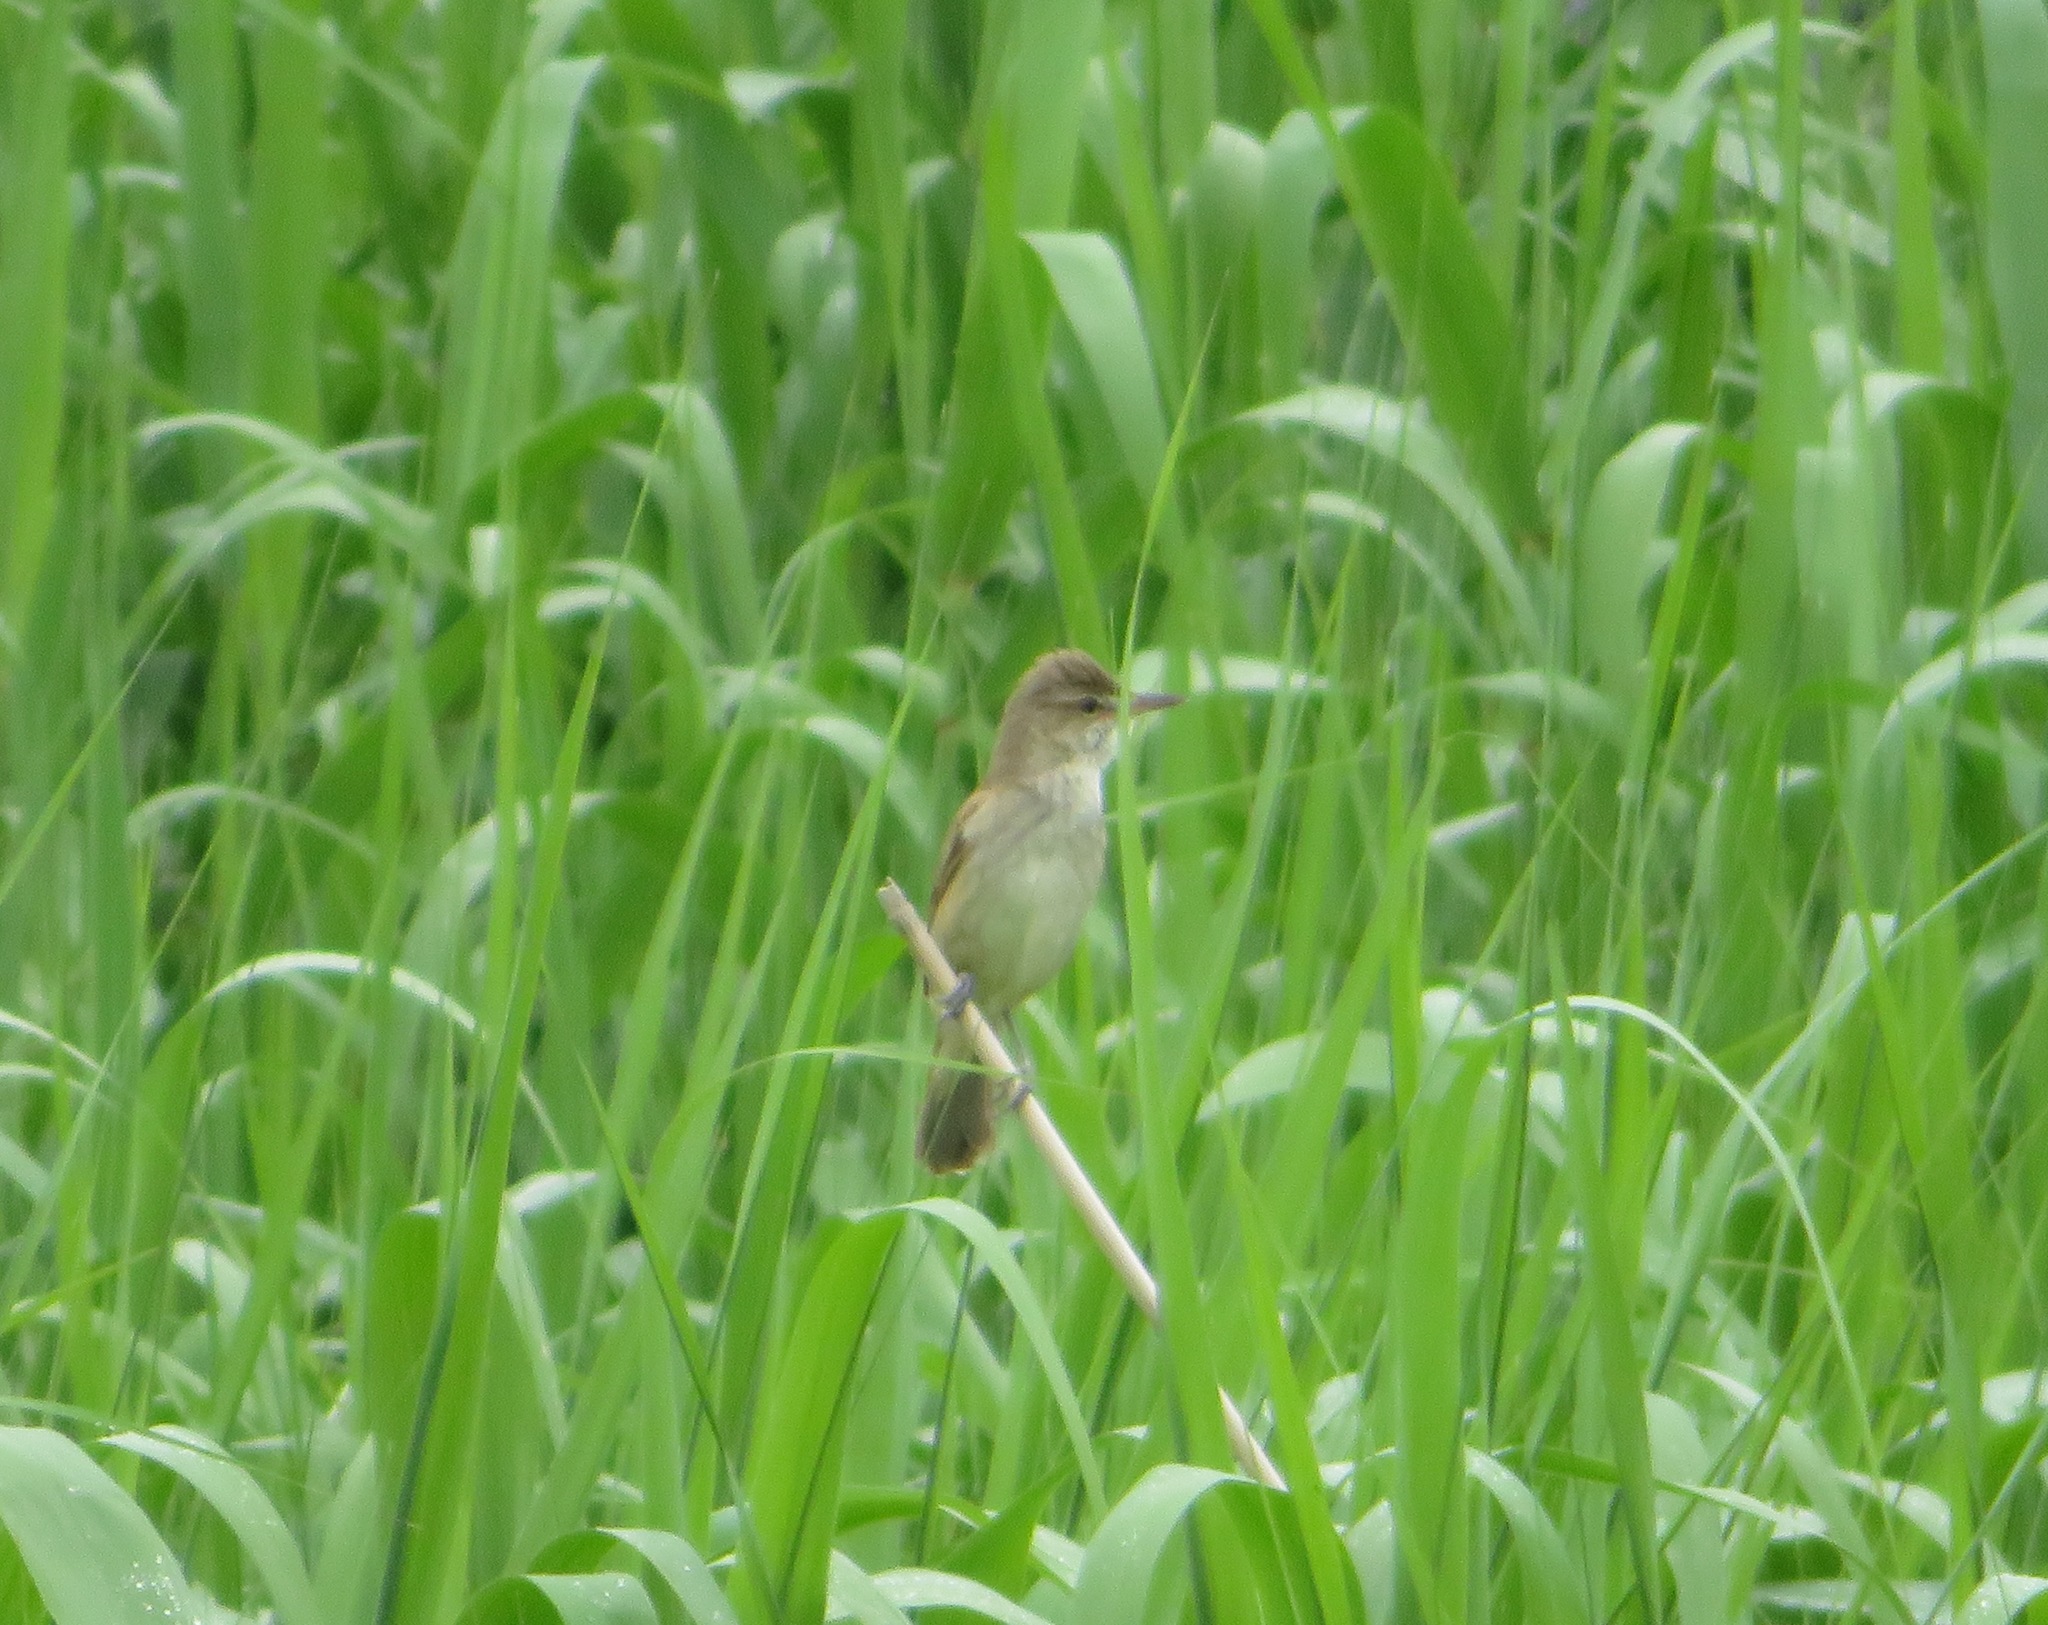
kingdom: Animalia
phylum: Chordata
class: Aves
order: Passeriformes
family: Acrocephalidae
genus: Acrocephalus
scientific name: Acrocephalus orientalis
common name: Oriental reed warbler
